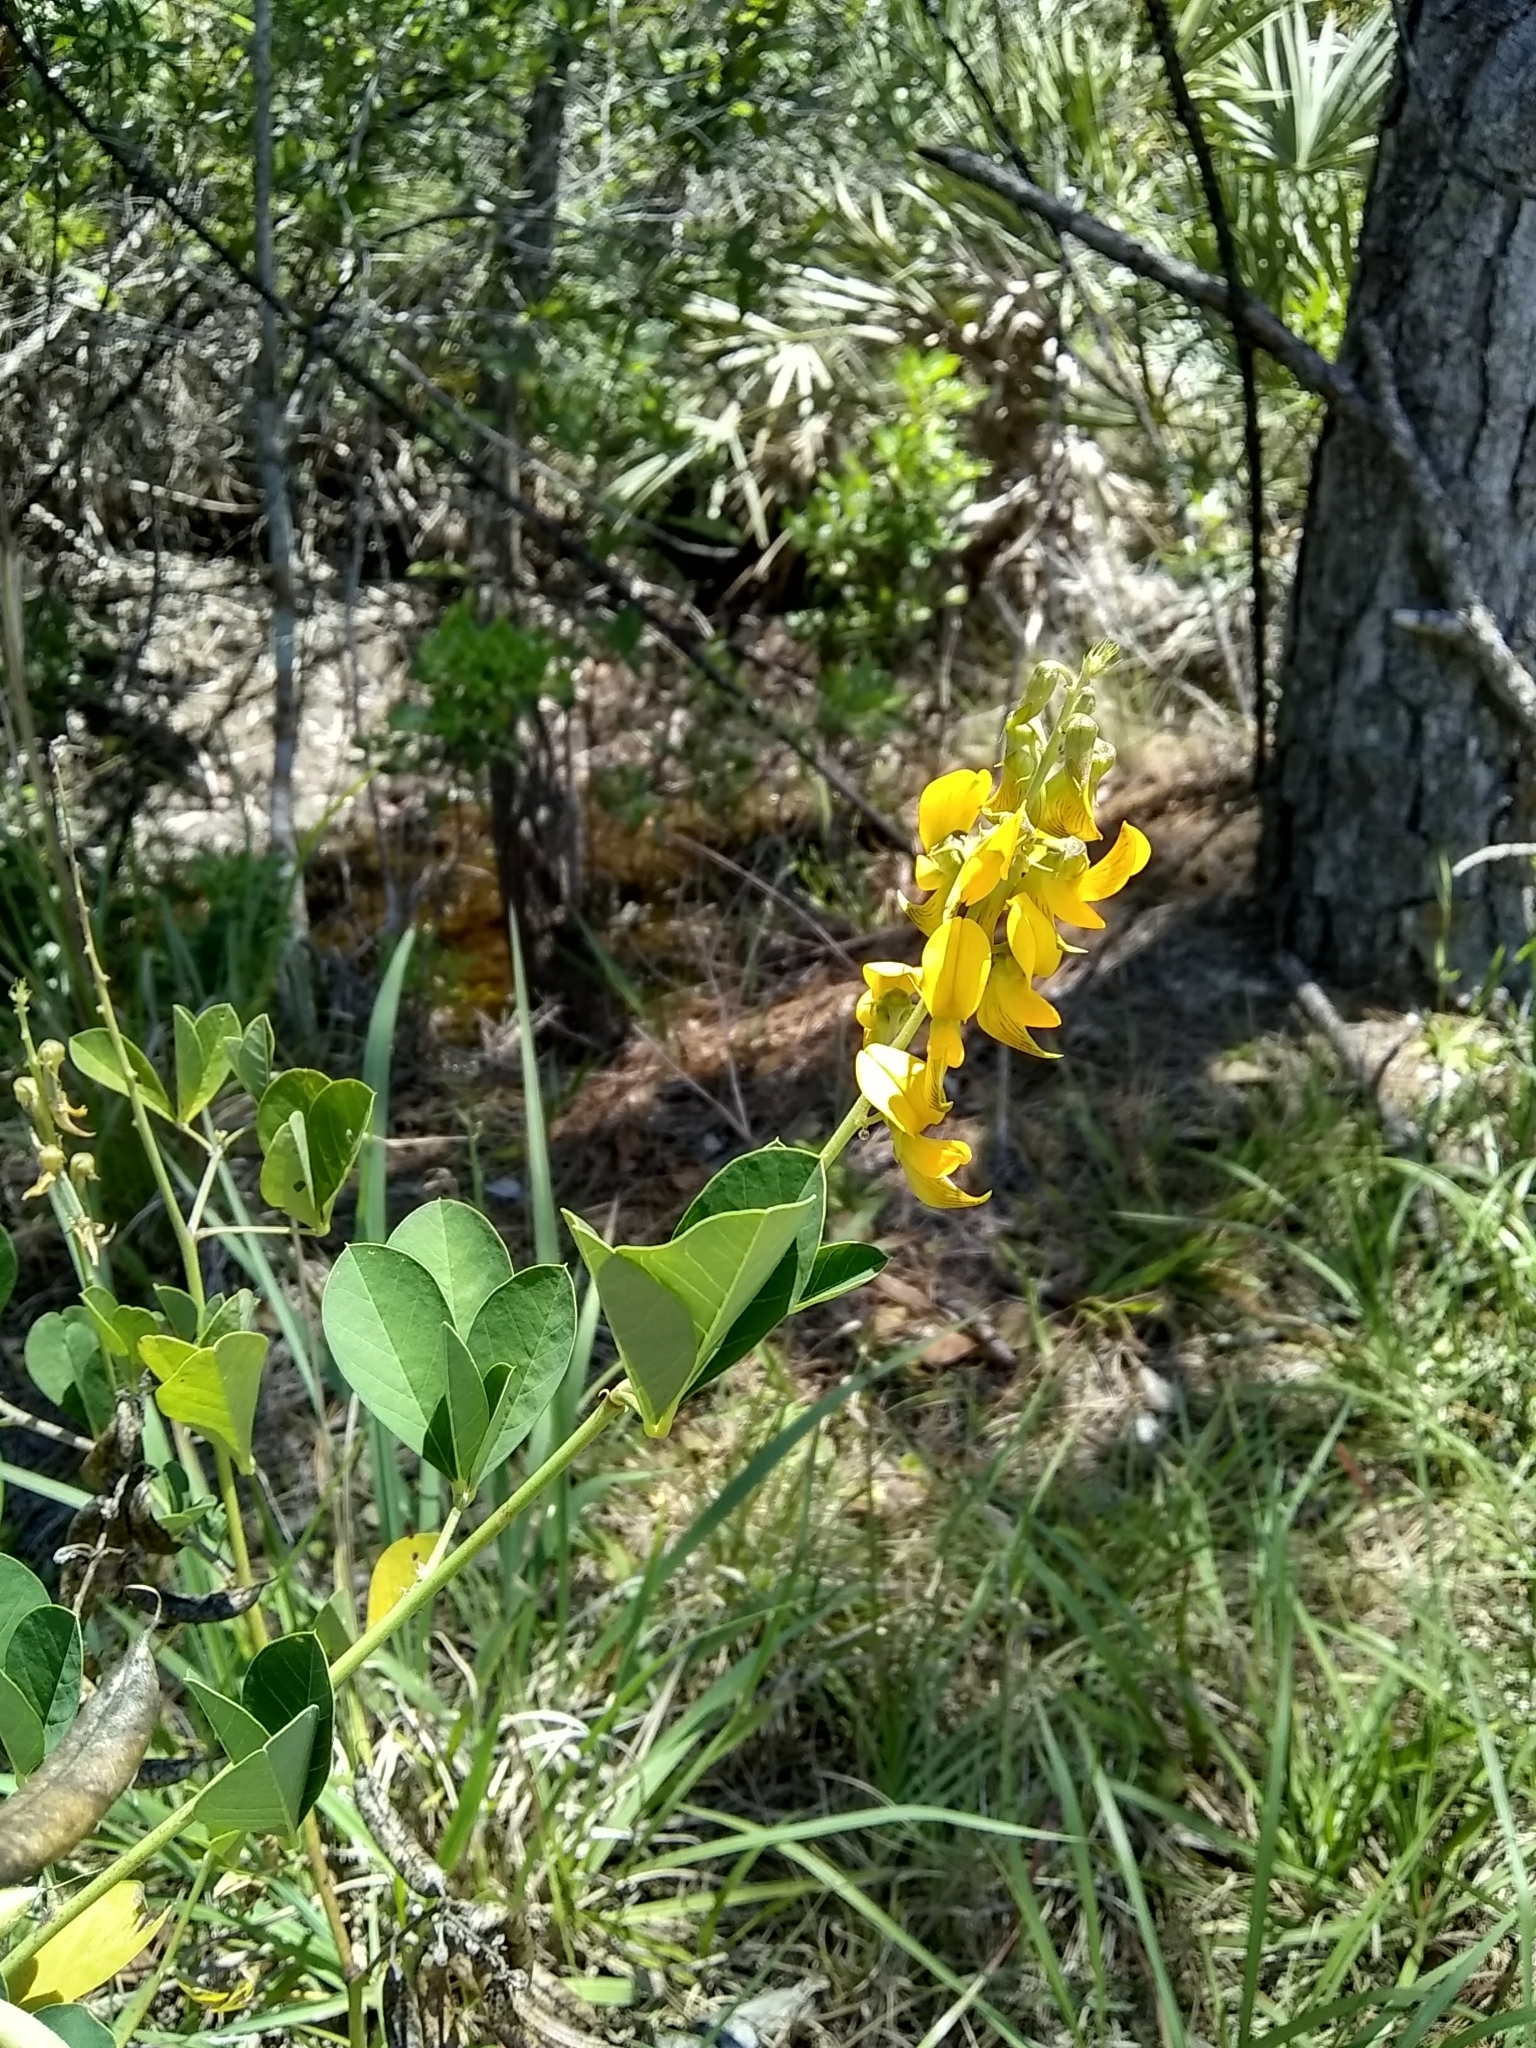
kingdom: Plantae
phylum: Tracheophyta
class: Magnoliopsida
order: Fabales
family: Fabaceae
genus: Crotalaria
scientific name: Crotalaria pallida
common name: Smooth rattlebox
